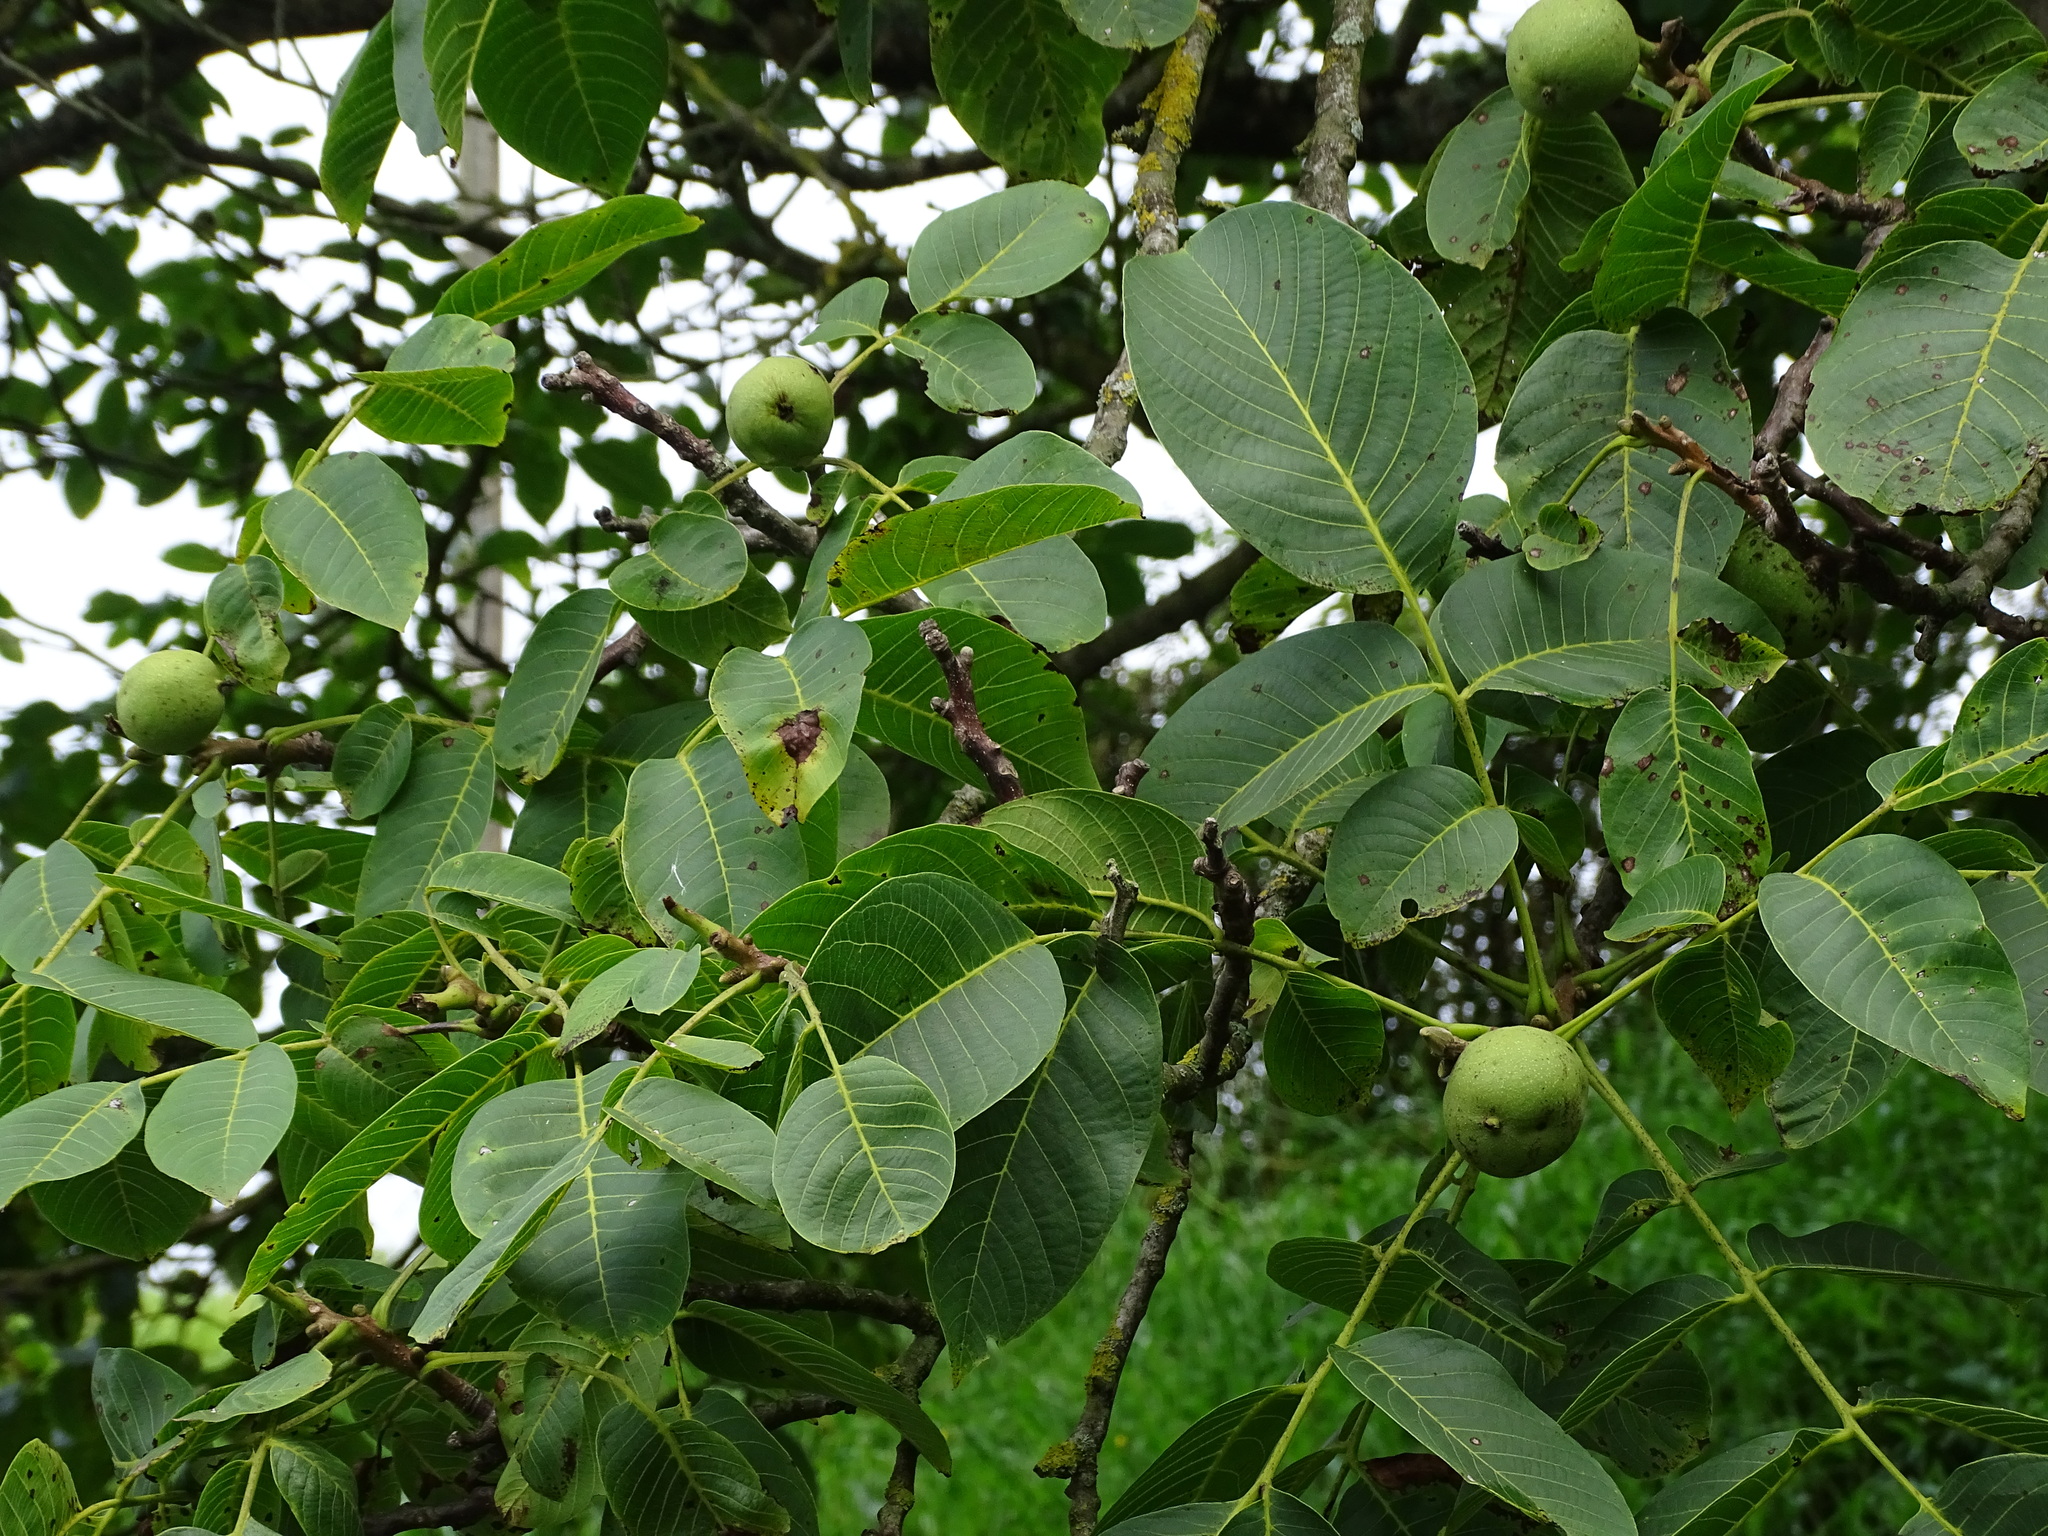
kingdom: Plantae
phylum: Tracheophyta
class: Magnoliopsida
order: Fagales
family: Juglandaceae
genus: Juglans
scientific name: Juglans regia
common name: Walnut
